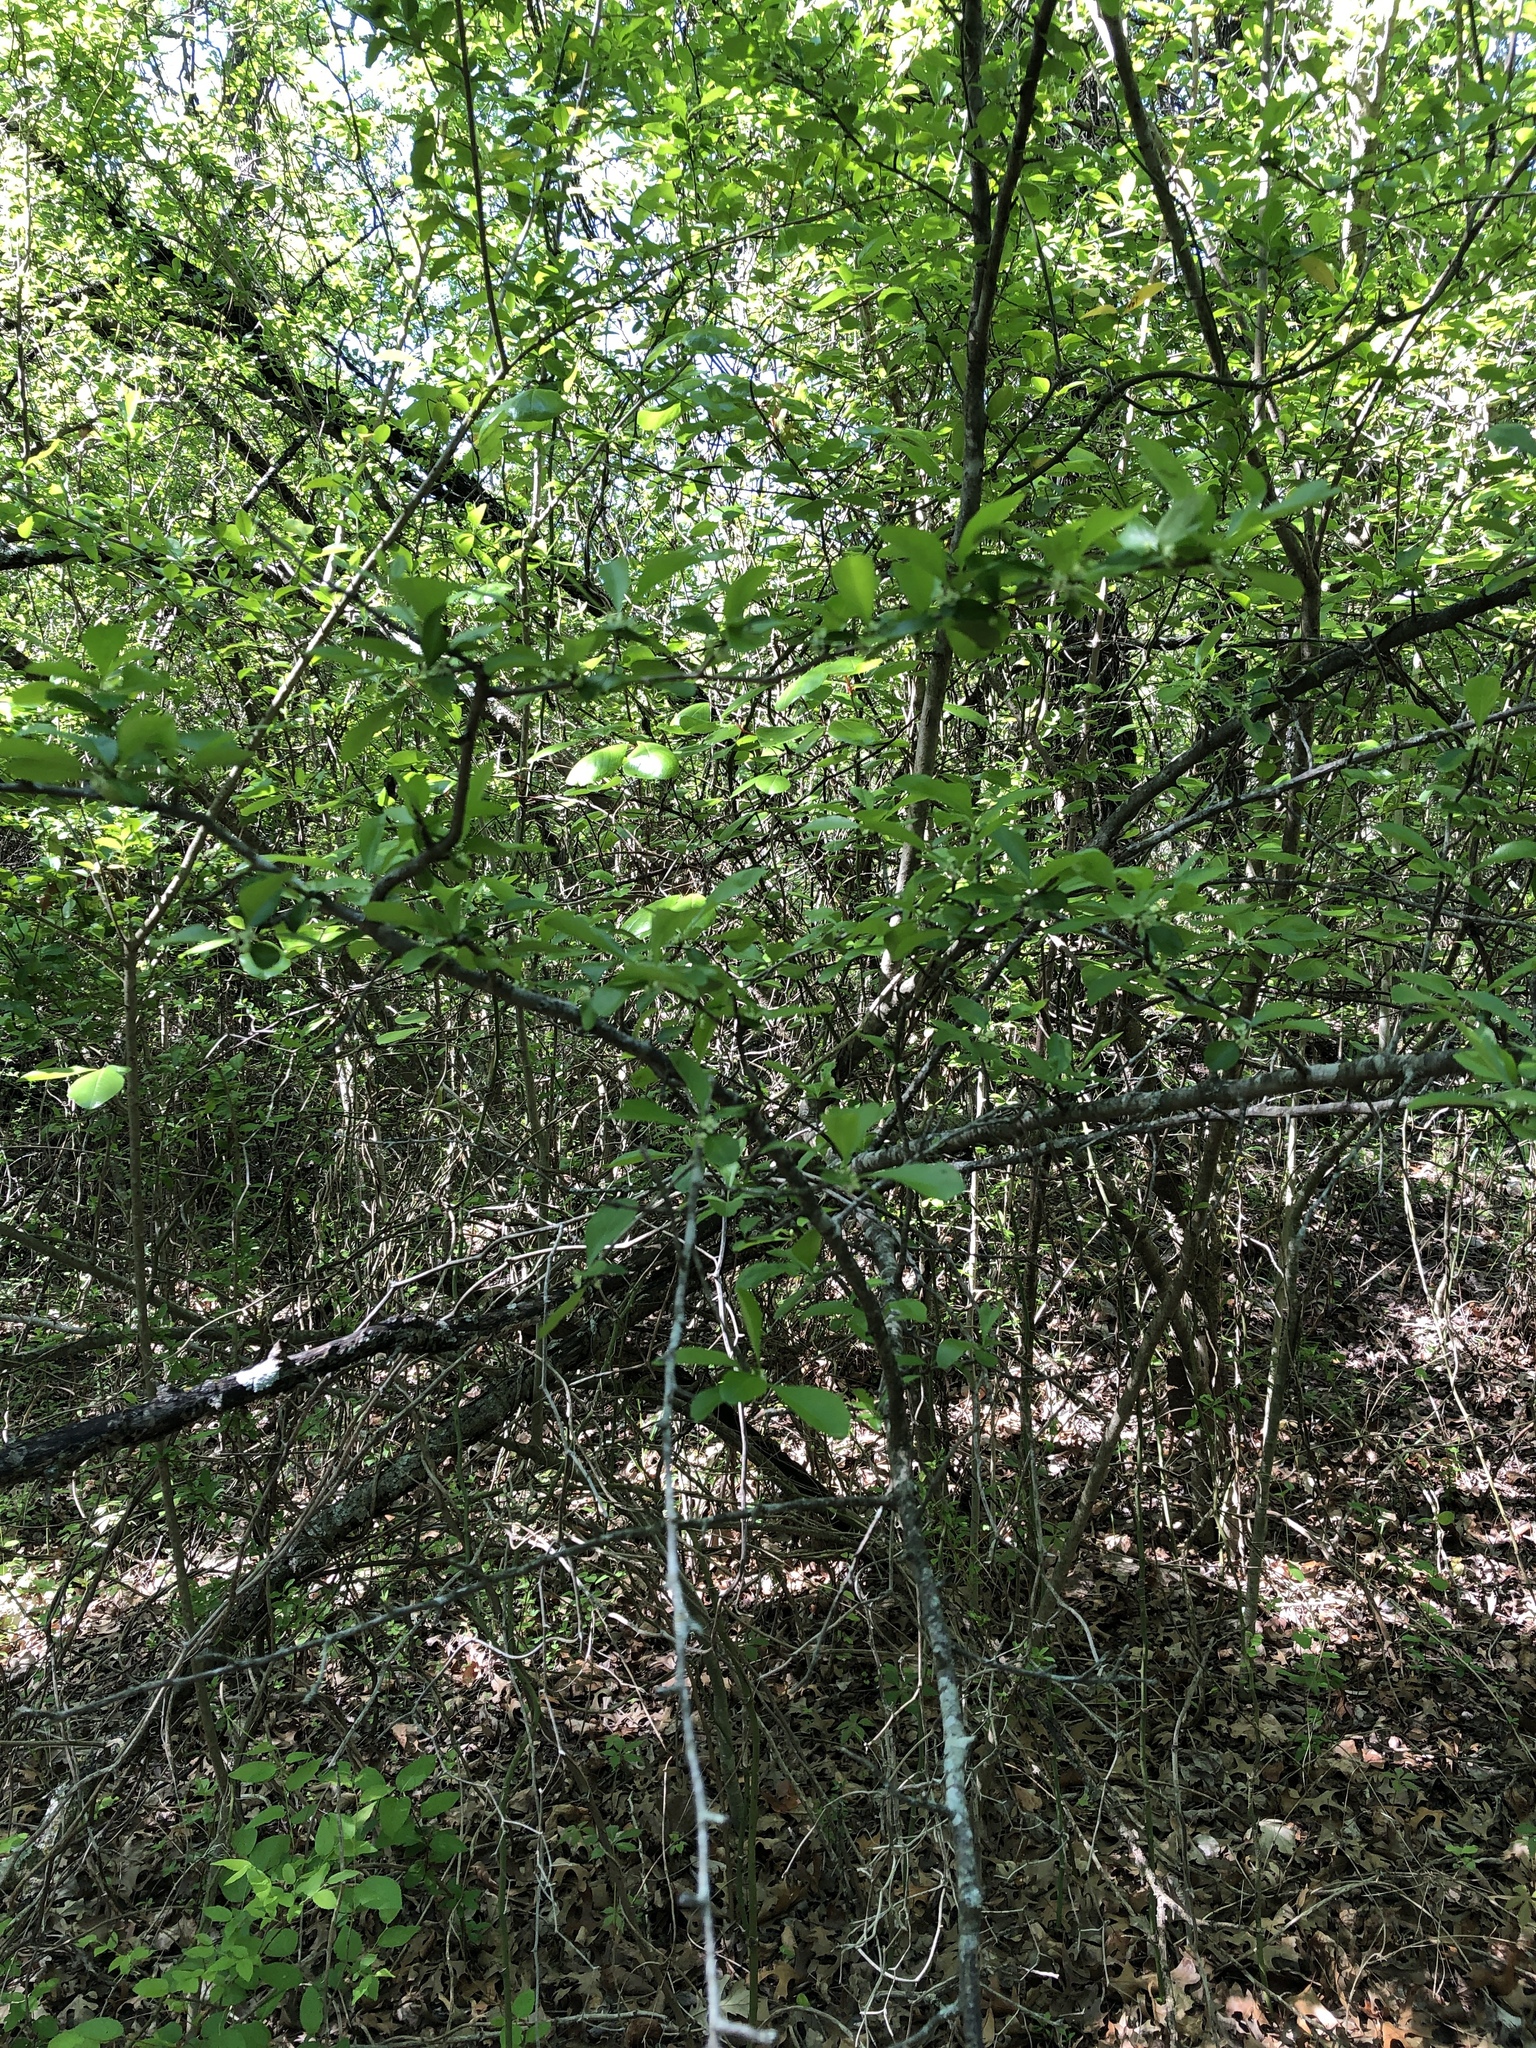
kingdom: Plantae
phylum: Tracheophyta
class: Magnoliopsida
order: Aquifoliales
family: Aquifoliaceae
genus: Ilex
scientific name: Ilex decidua
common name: Possum-haw
